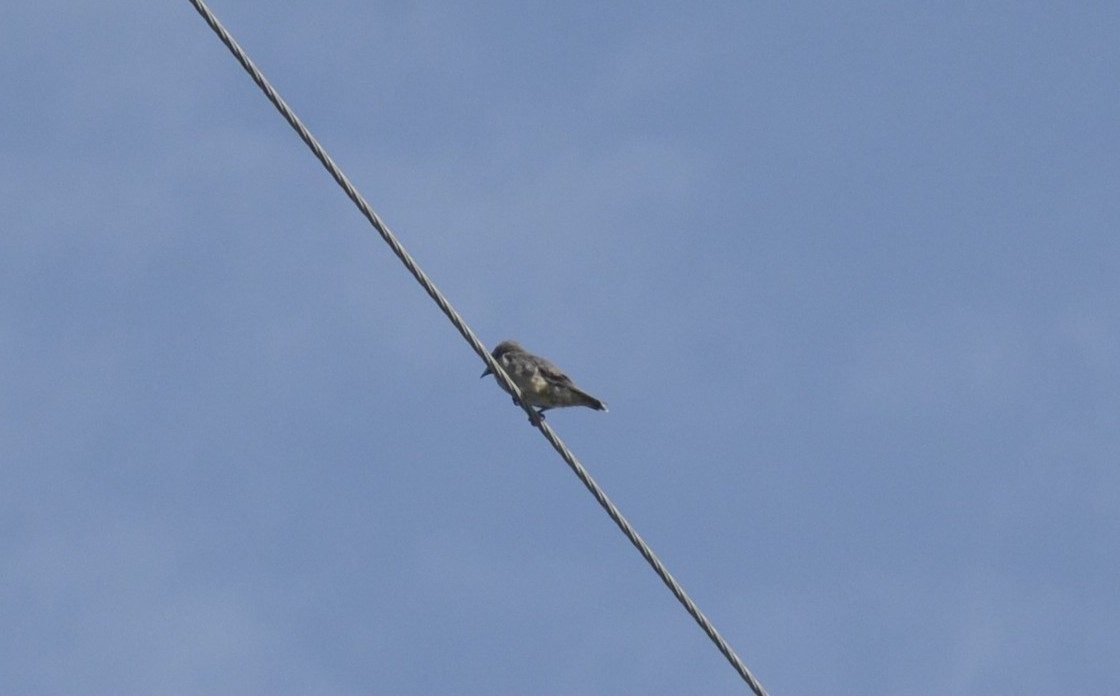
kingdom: Animalia
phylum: Chordata
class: Aves
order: Passeriformes
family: Artamidae
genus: Artamus
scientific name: Artamus fuscus
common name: Ashy woodswallow
